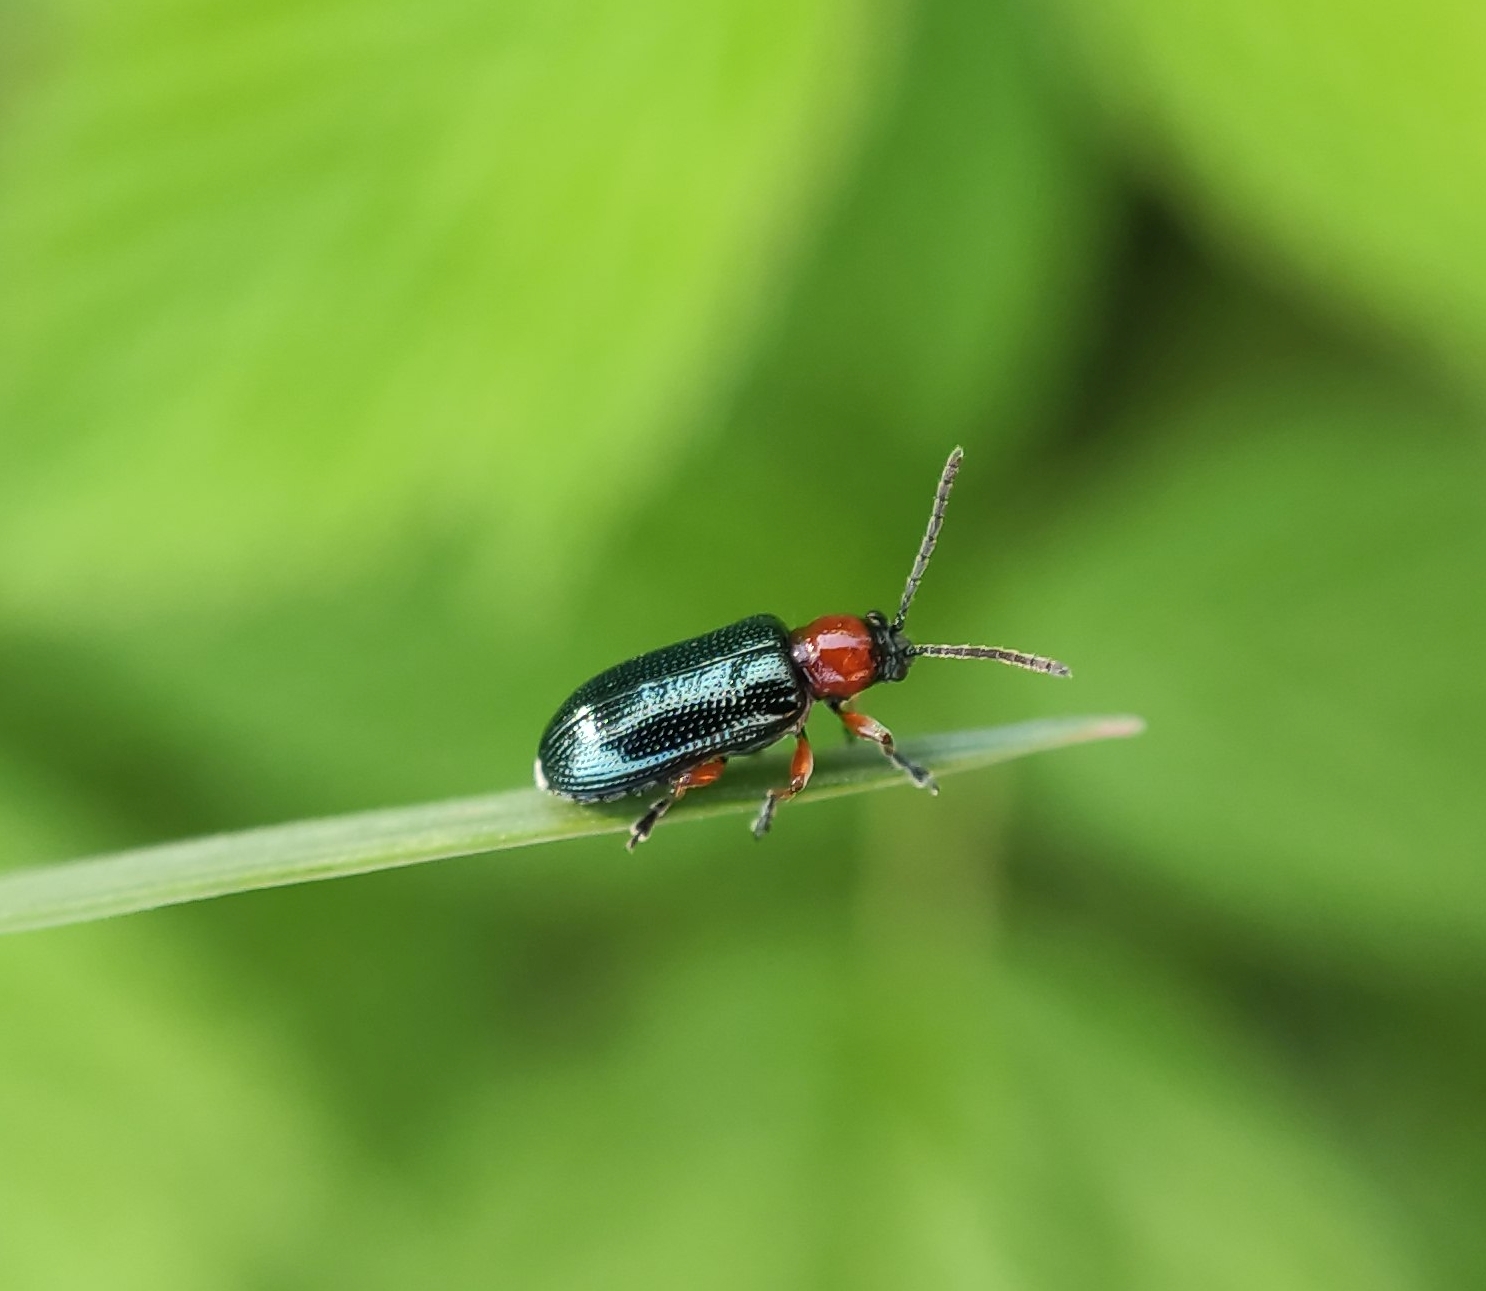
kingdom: Animalia
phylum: Arthropoda
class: Insecta
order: Coleoptera
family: Chrysomelidae
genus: Oulema
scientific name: Oulema
